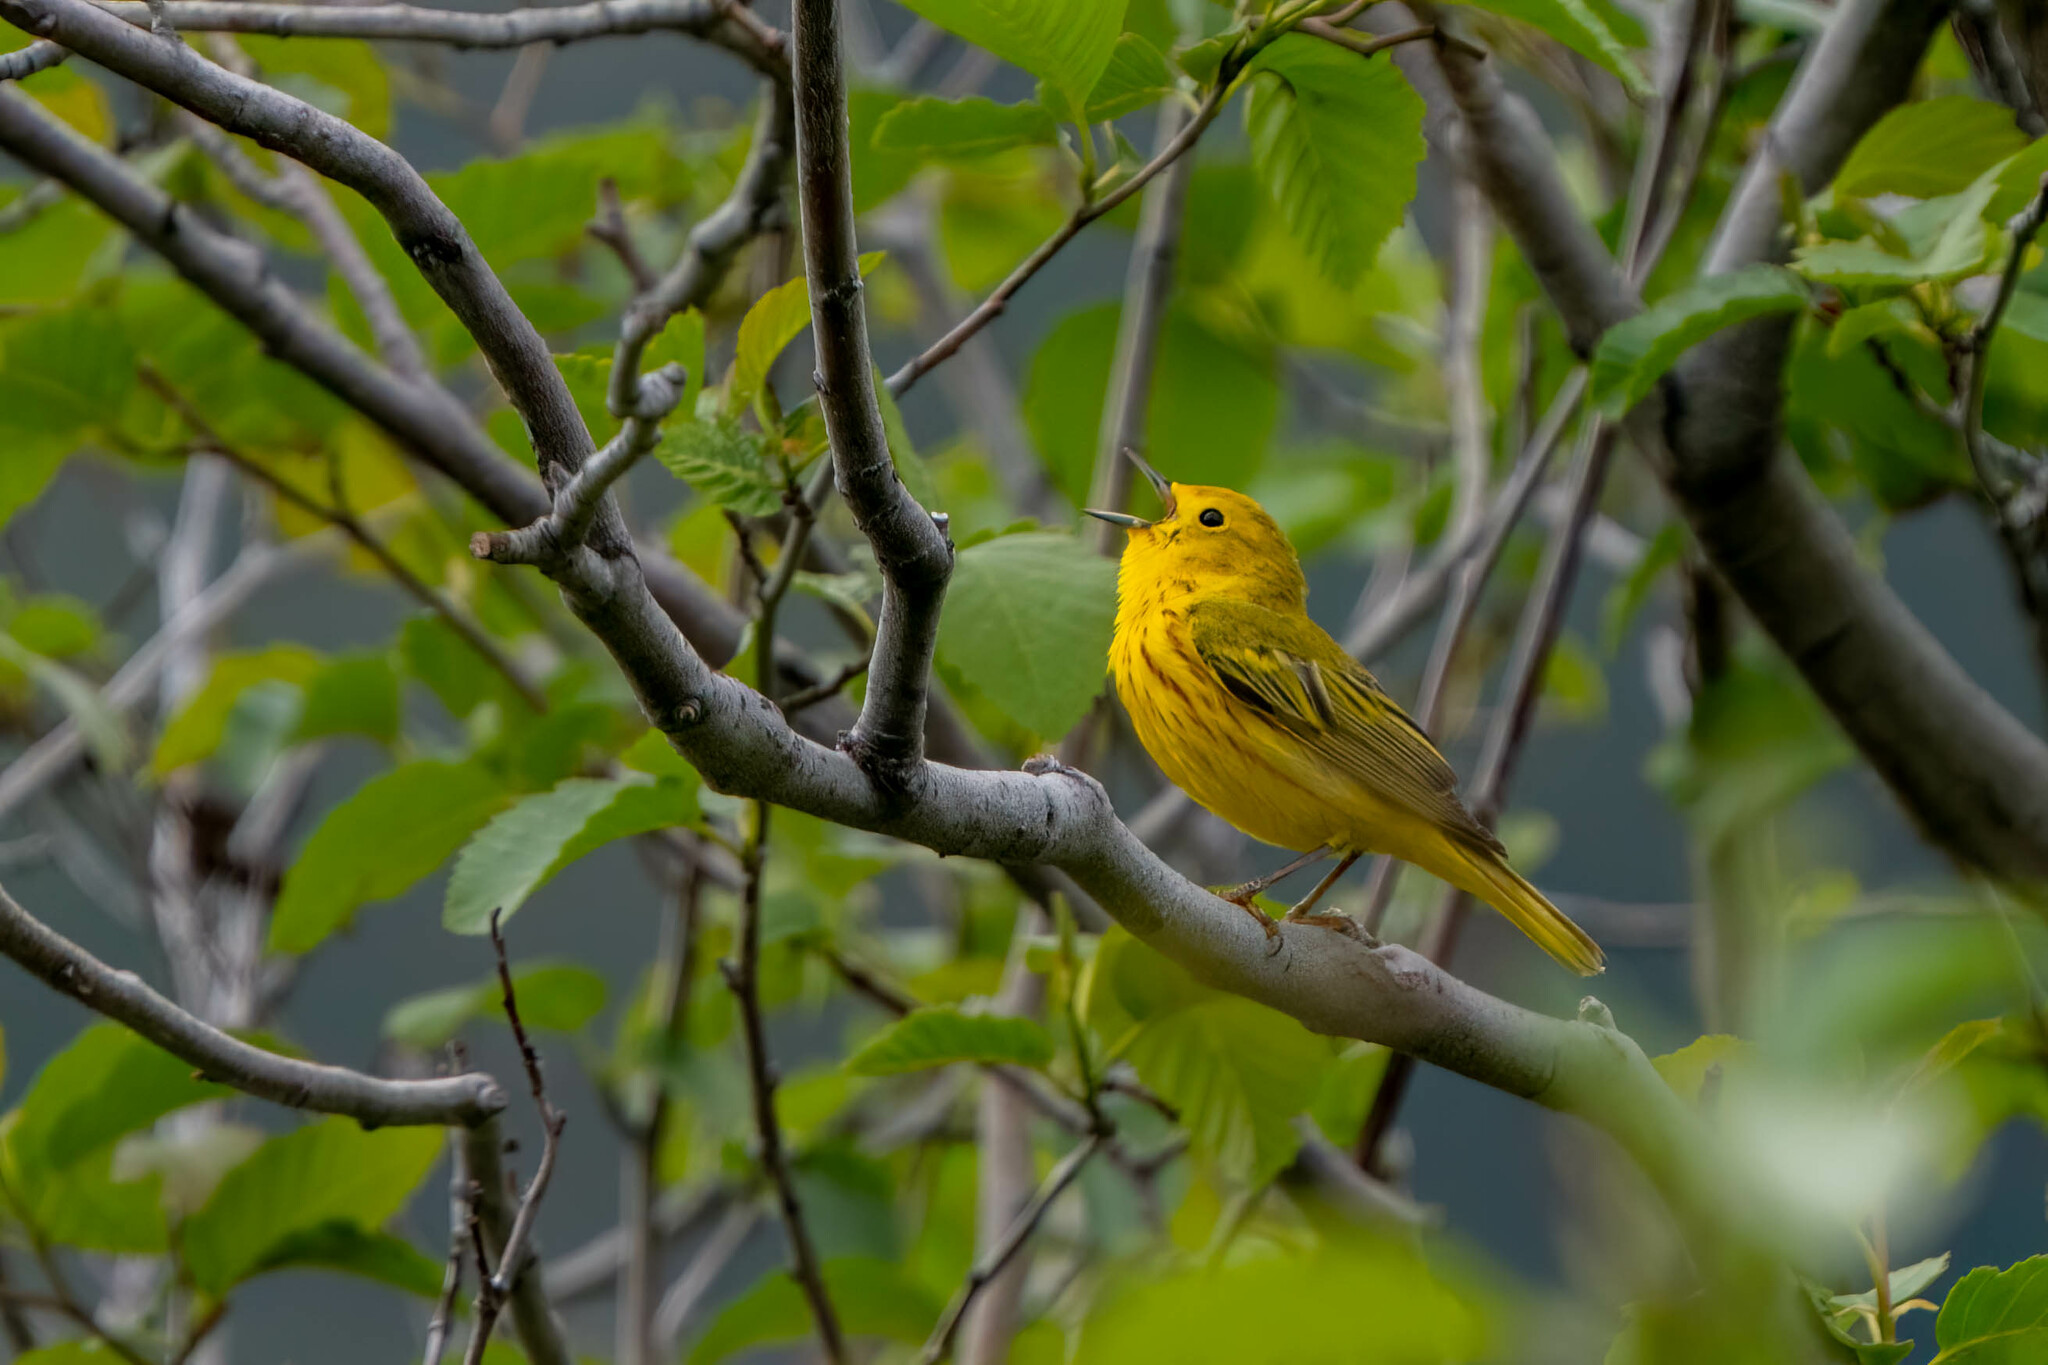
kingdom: Animalia
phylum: Chordata
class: Aves
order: Passeriformes
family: Parulidae
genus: Setophaga
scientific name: Setophaga petechia
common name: Yellow warbler
